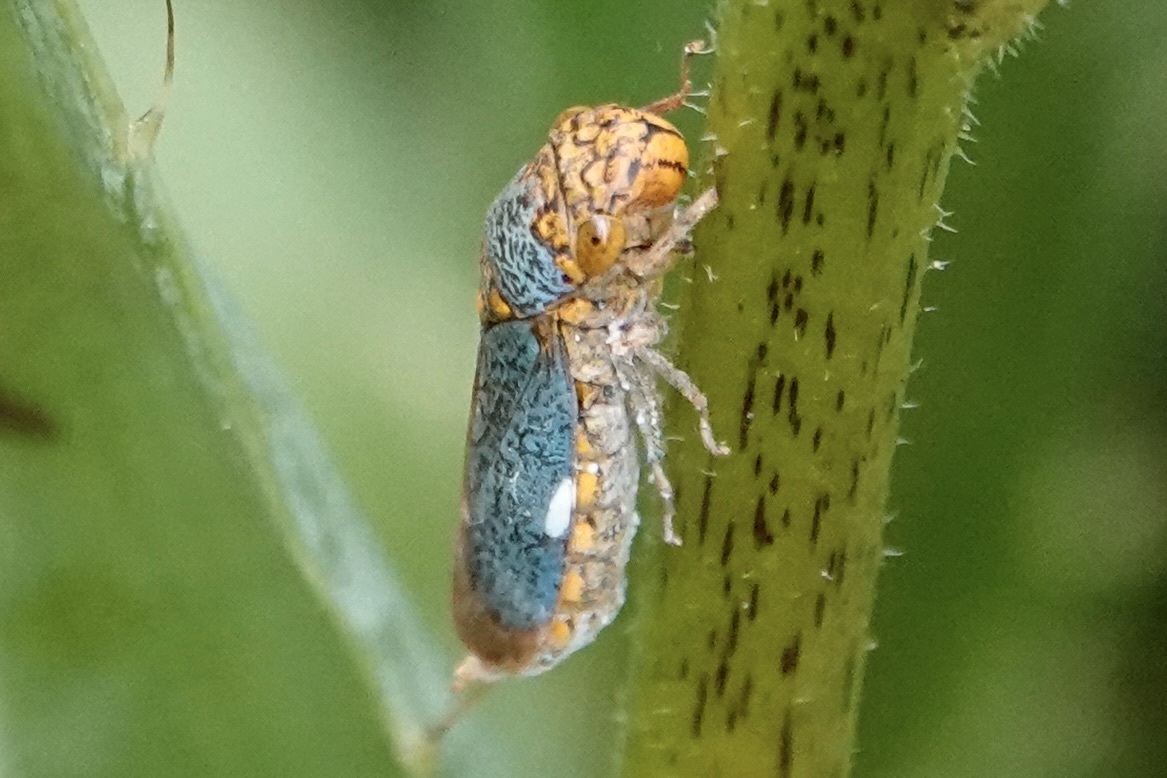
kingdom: Animalia
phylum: Arthropoda
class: Insecta
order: Hemiptera
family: Cicadellidae
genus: Oncometopia
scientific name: Oncometopia orbona
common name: Broad-headed sharpshooter
